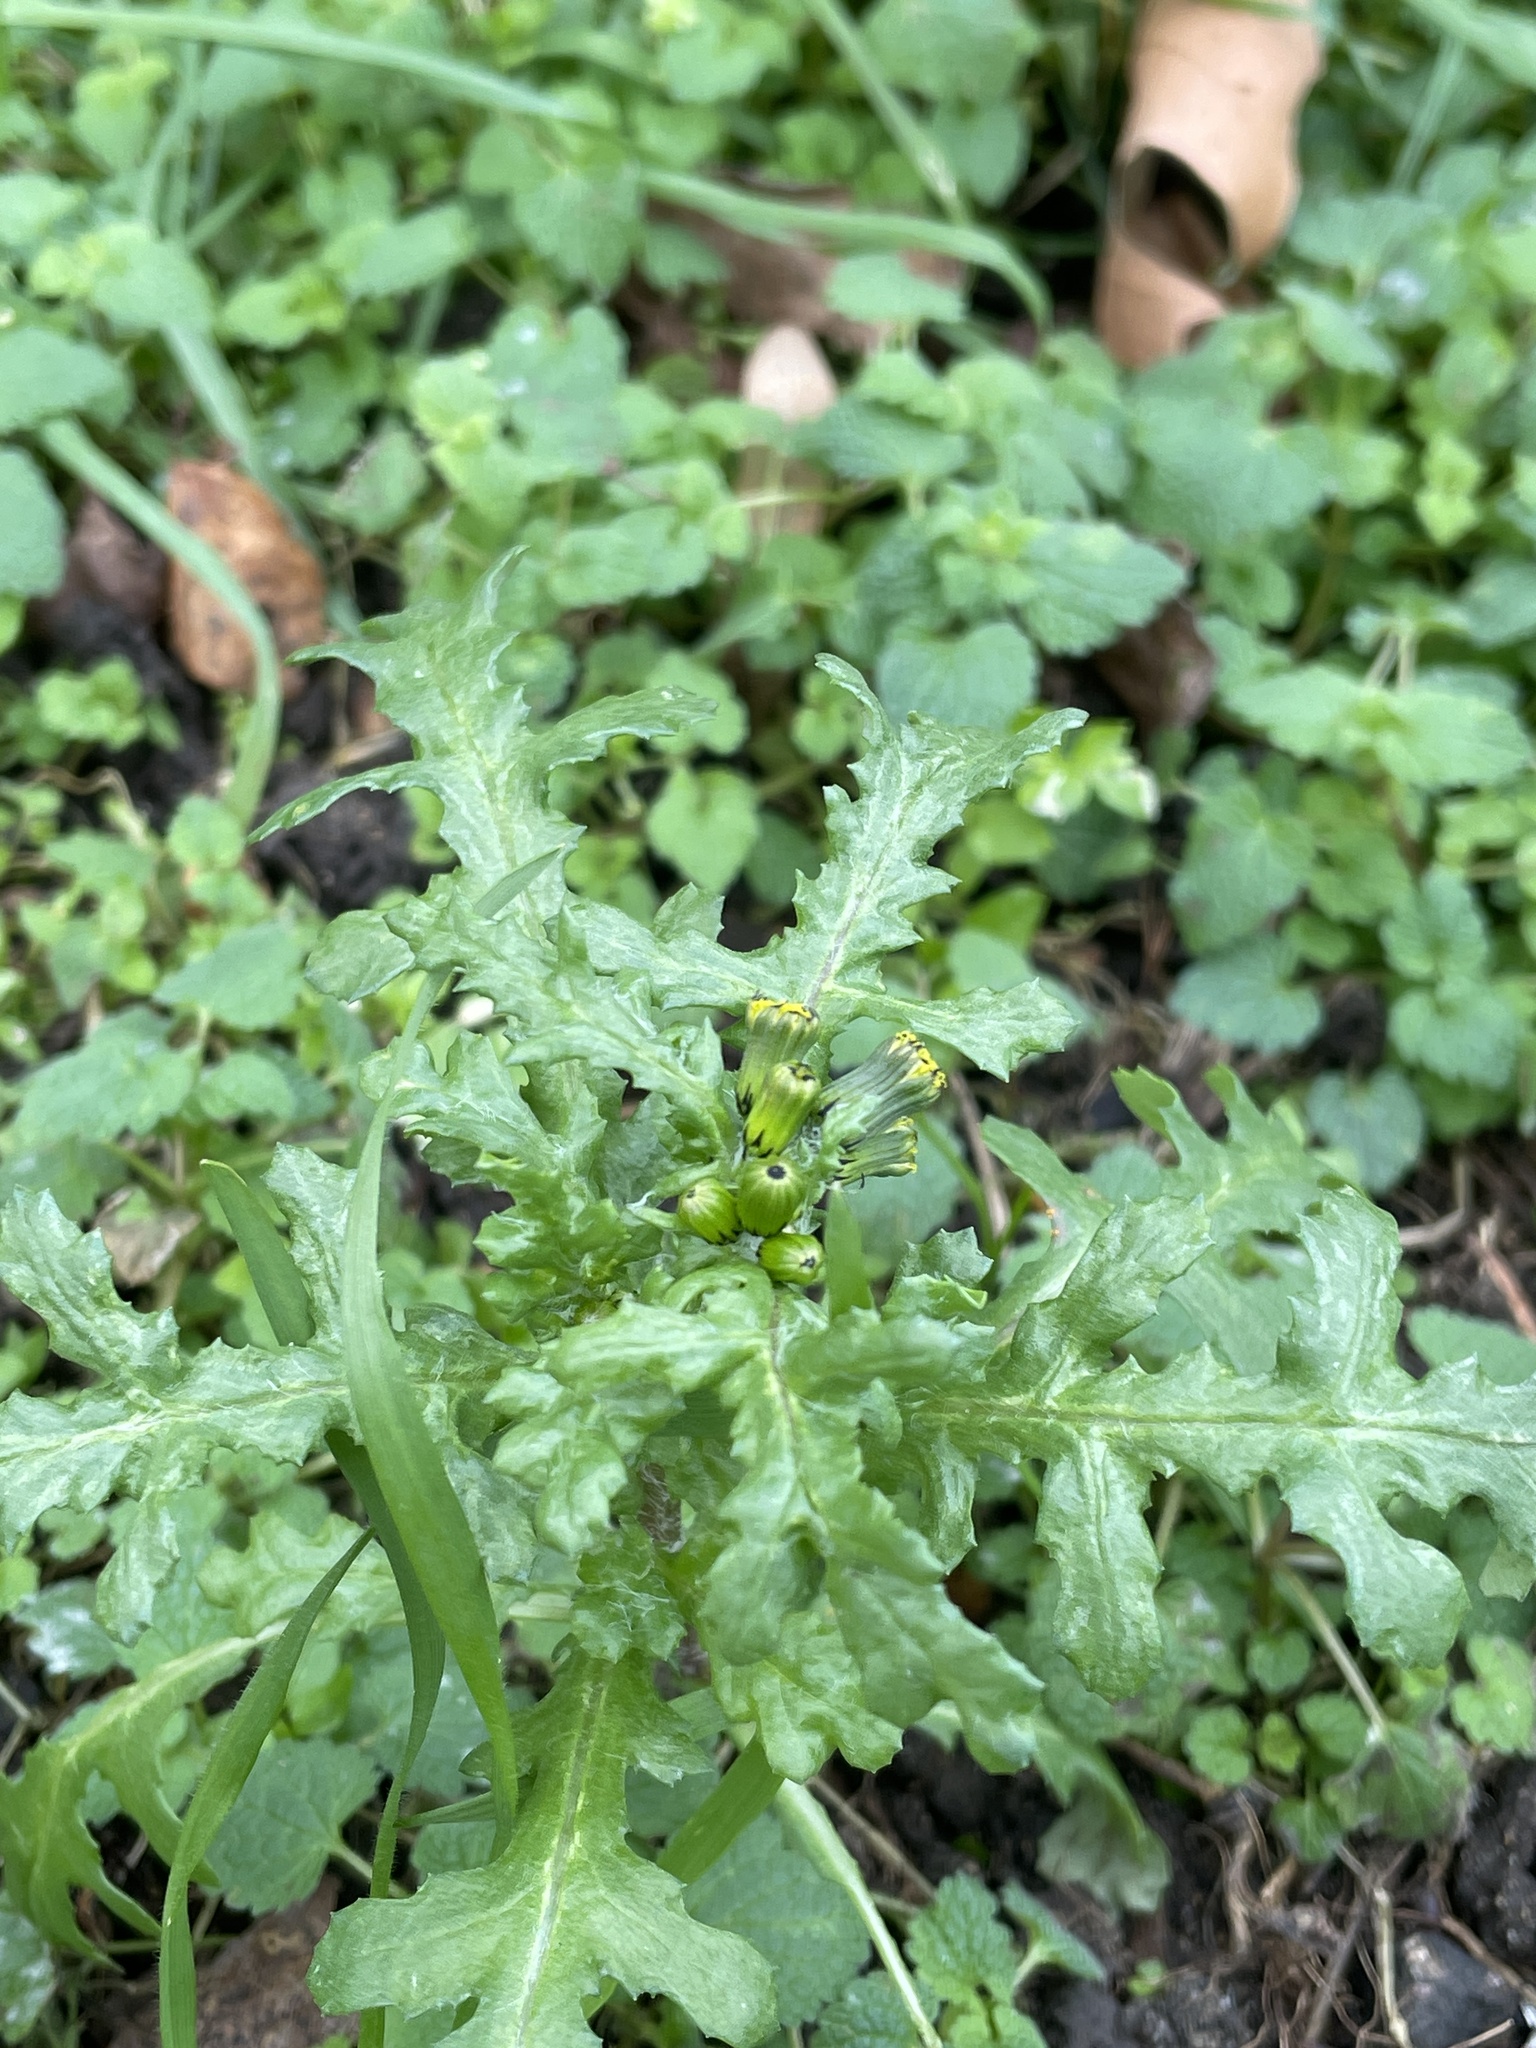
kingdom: Plantae
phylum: Tracheophyta
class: Magnoliopsida
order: Asterales
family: Asteraceae
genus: Senecio
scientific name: Senecio vulgaris
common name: Old-man-in-the-spring
